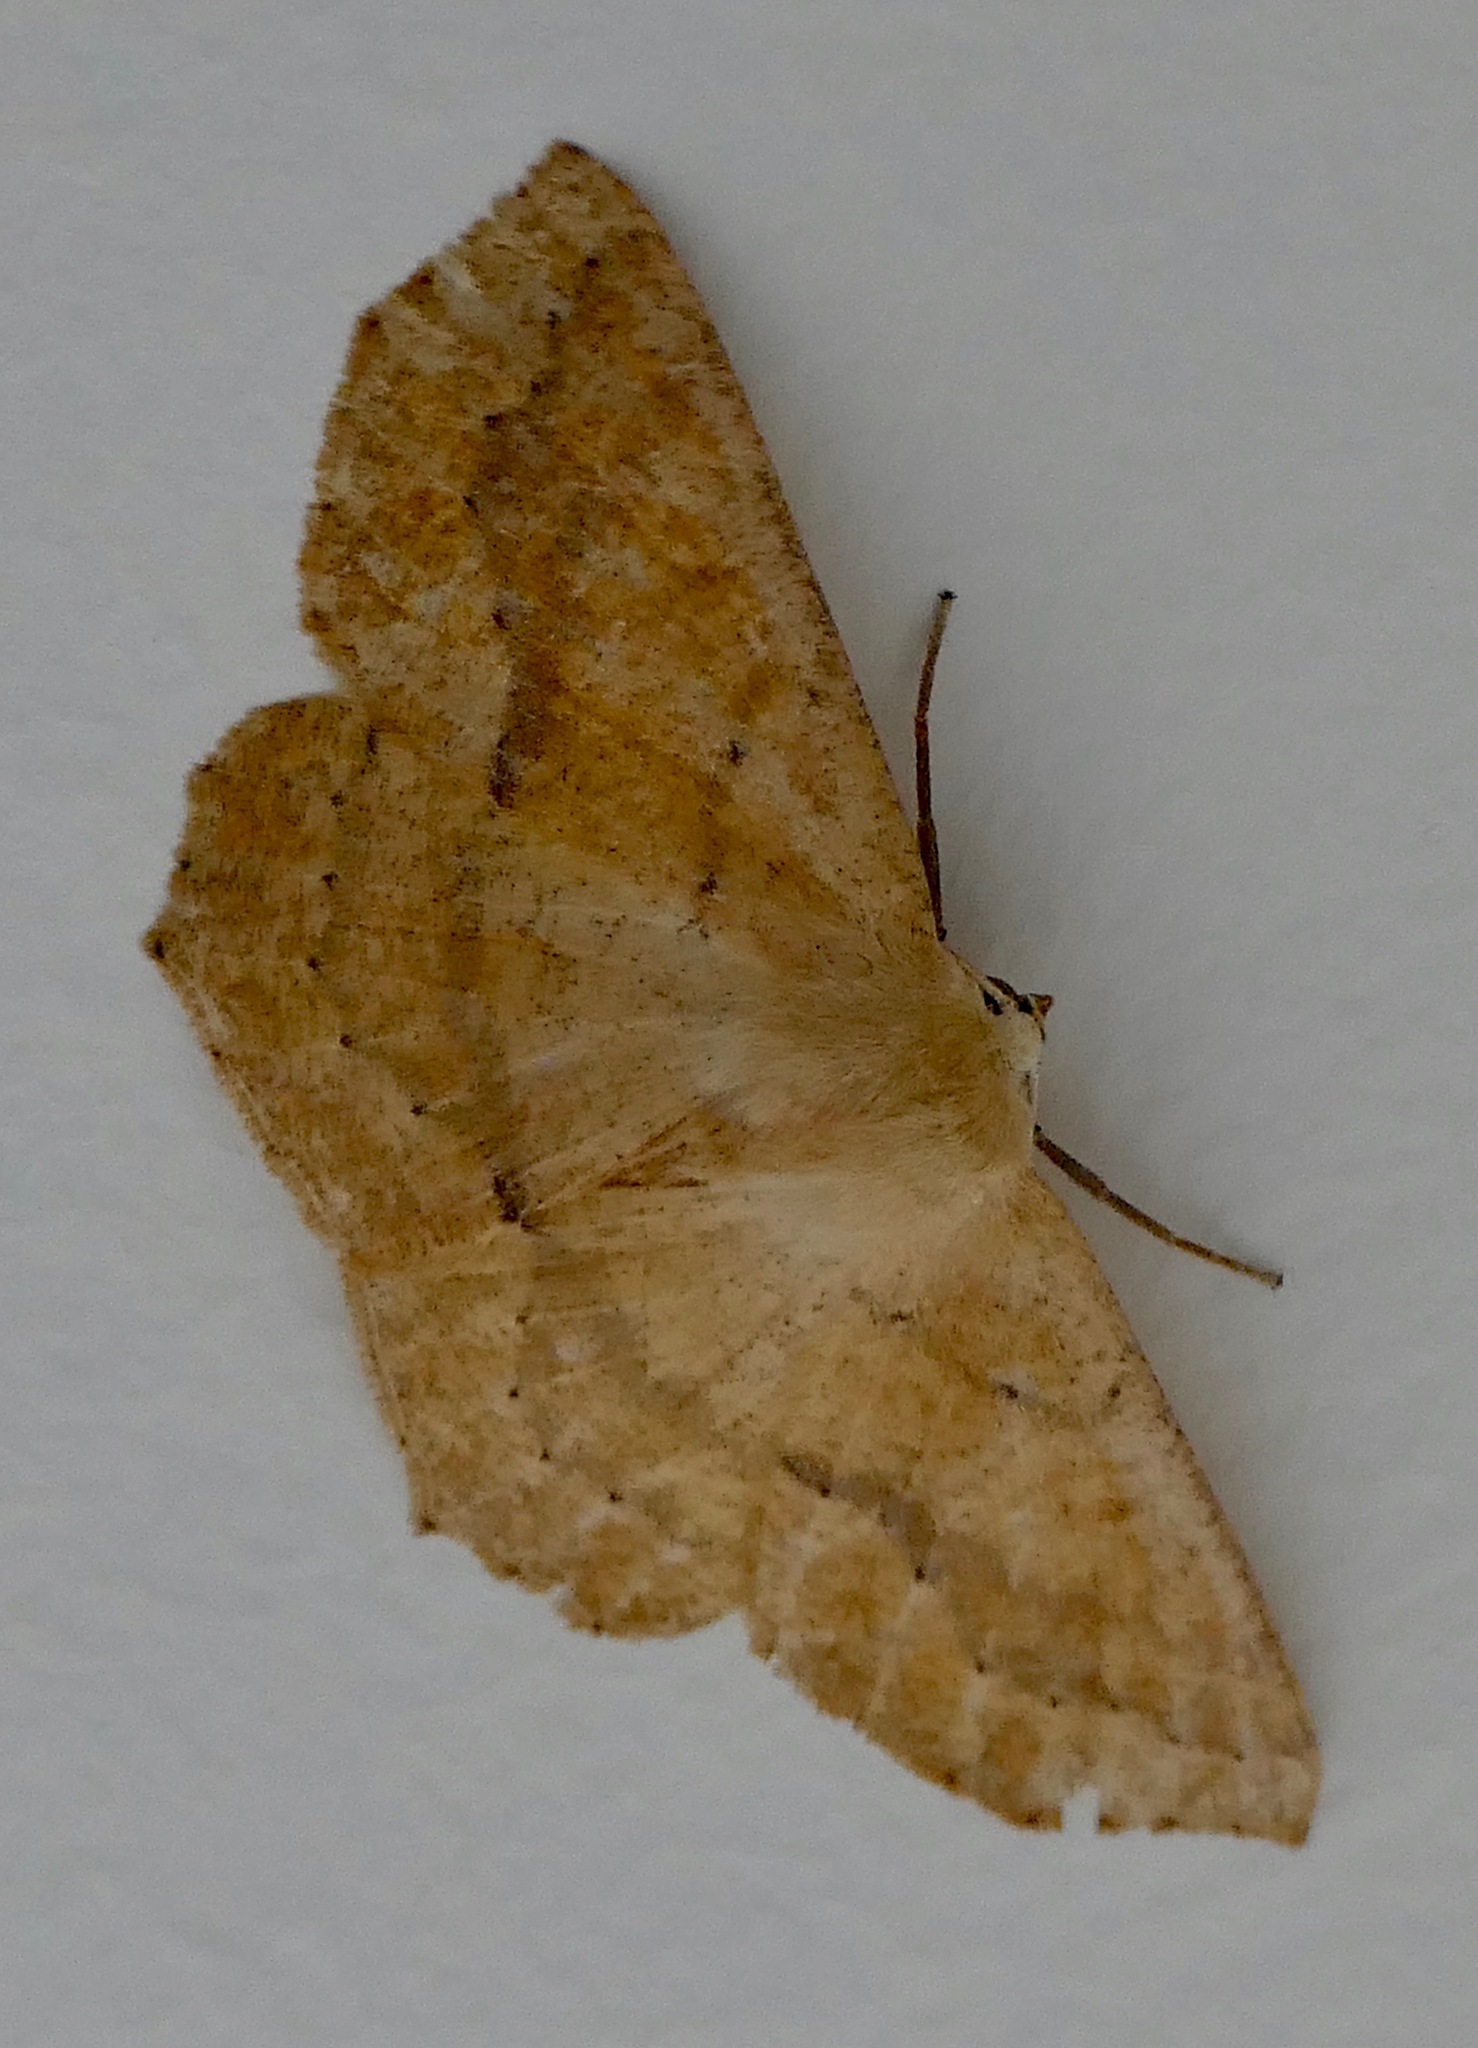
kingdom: Animalia
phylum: Arthropoda
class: Insecta
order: Lepidoptera
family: Geometridae
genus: Sabulodes
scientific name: Sabulodes aegrotata
